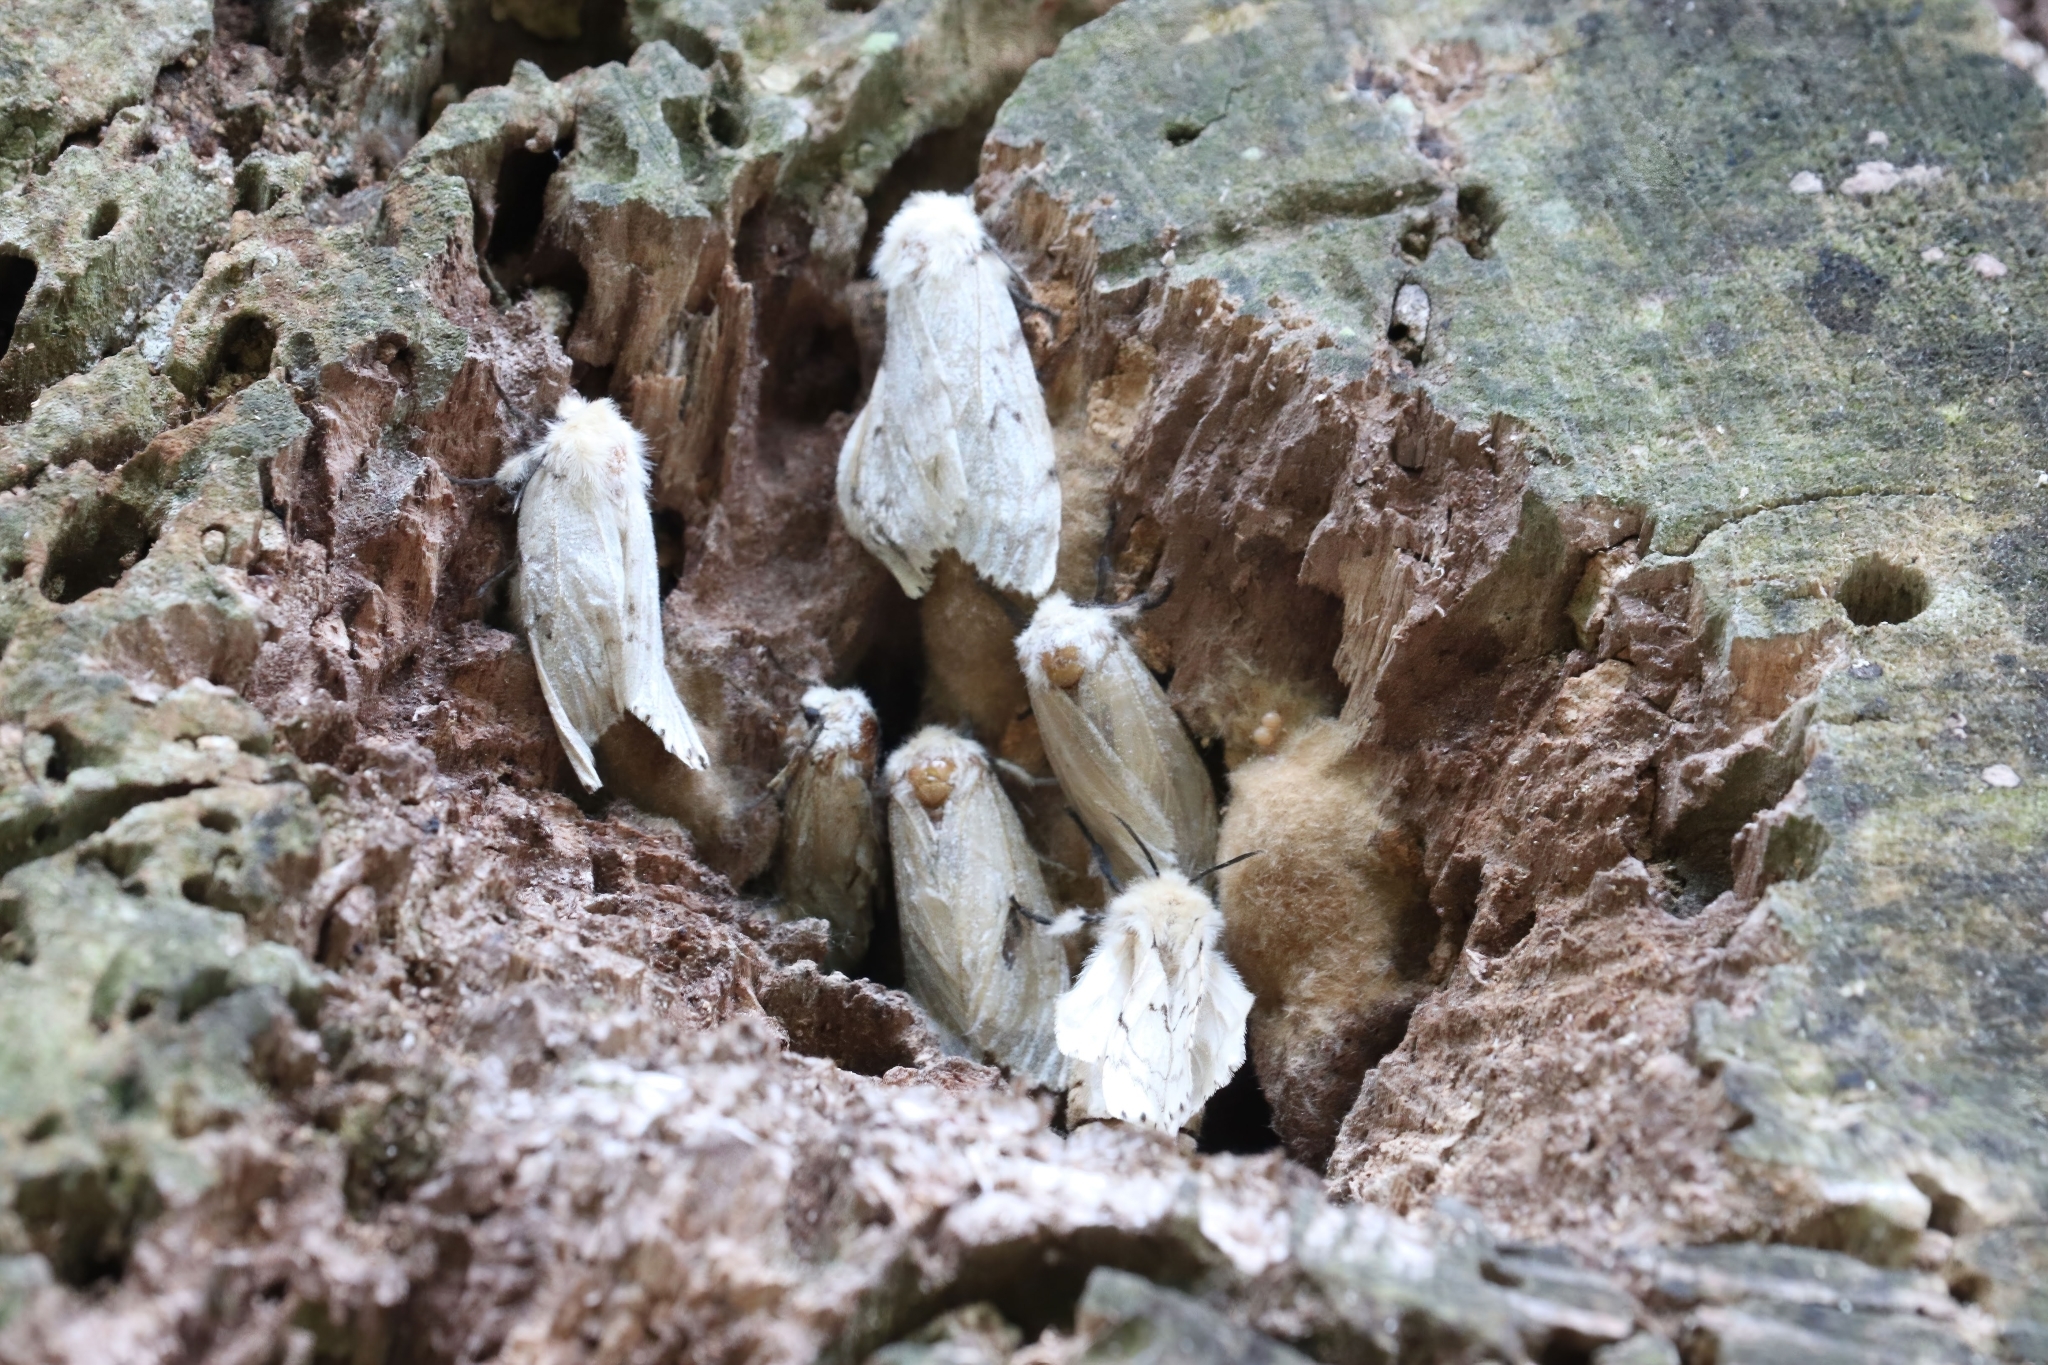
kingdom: Animalia
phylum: Arthropoda
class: Insecta
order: Lepidoptera
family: Erebidae
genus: Lymantria
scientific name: Lymantria dispar
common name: Gypsy moth
